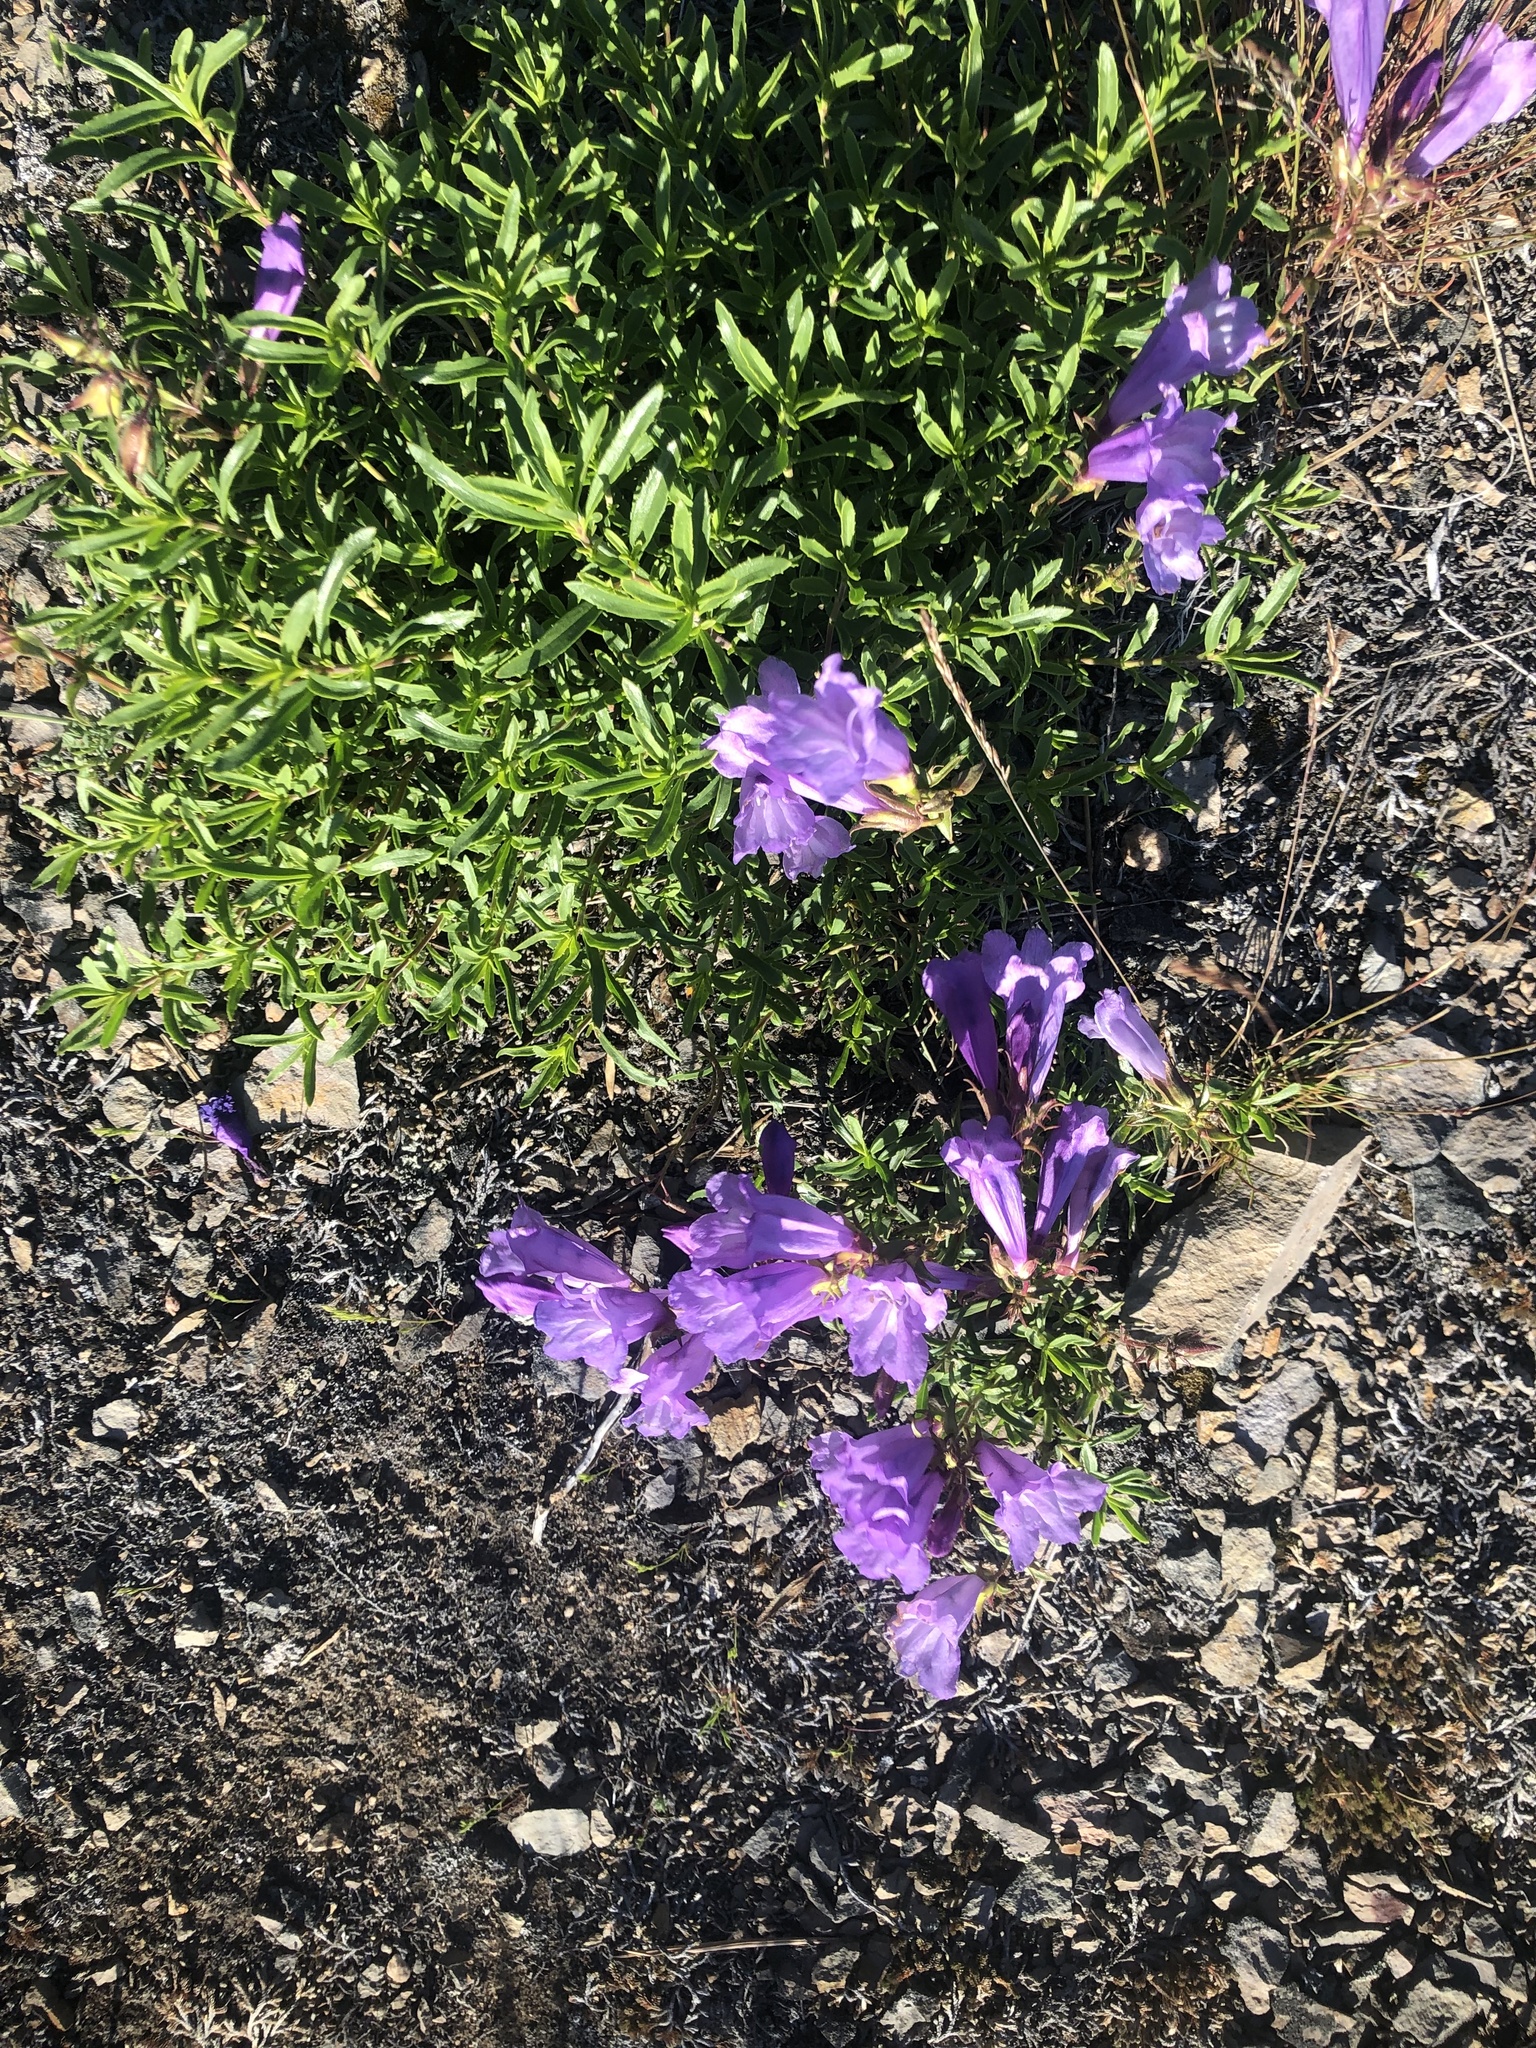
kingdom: Plantae
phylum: Tracheophyta
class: Magnoliopsida
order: Lamiales
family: Plantaginaceae
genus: Penstemon
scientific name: Penstemon fruticosus
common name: Bush penstemon
